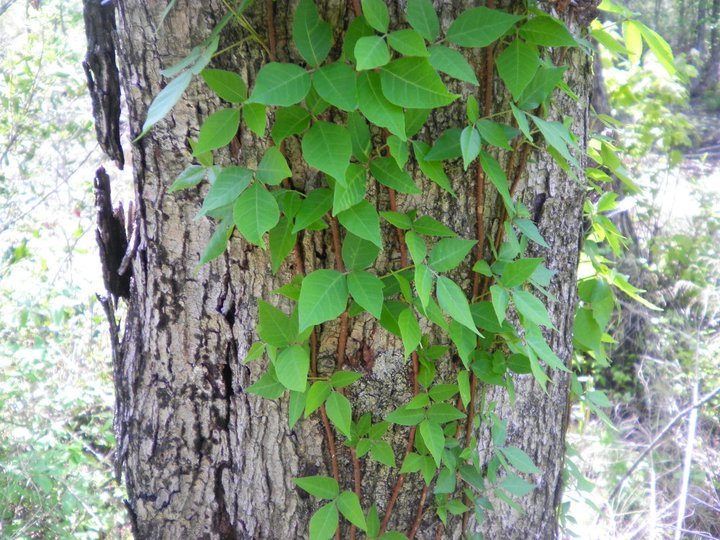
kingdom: Plantae
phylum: Tracheophyta
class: Magnoliopsida
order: Sapindales
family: Anacardiaceae
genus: Toxicodendron
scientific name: Toxicodendron radicans
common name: Poison ivy
